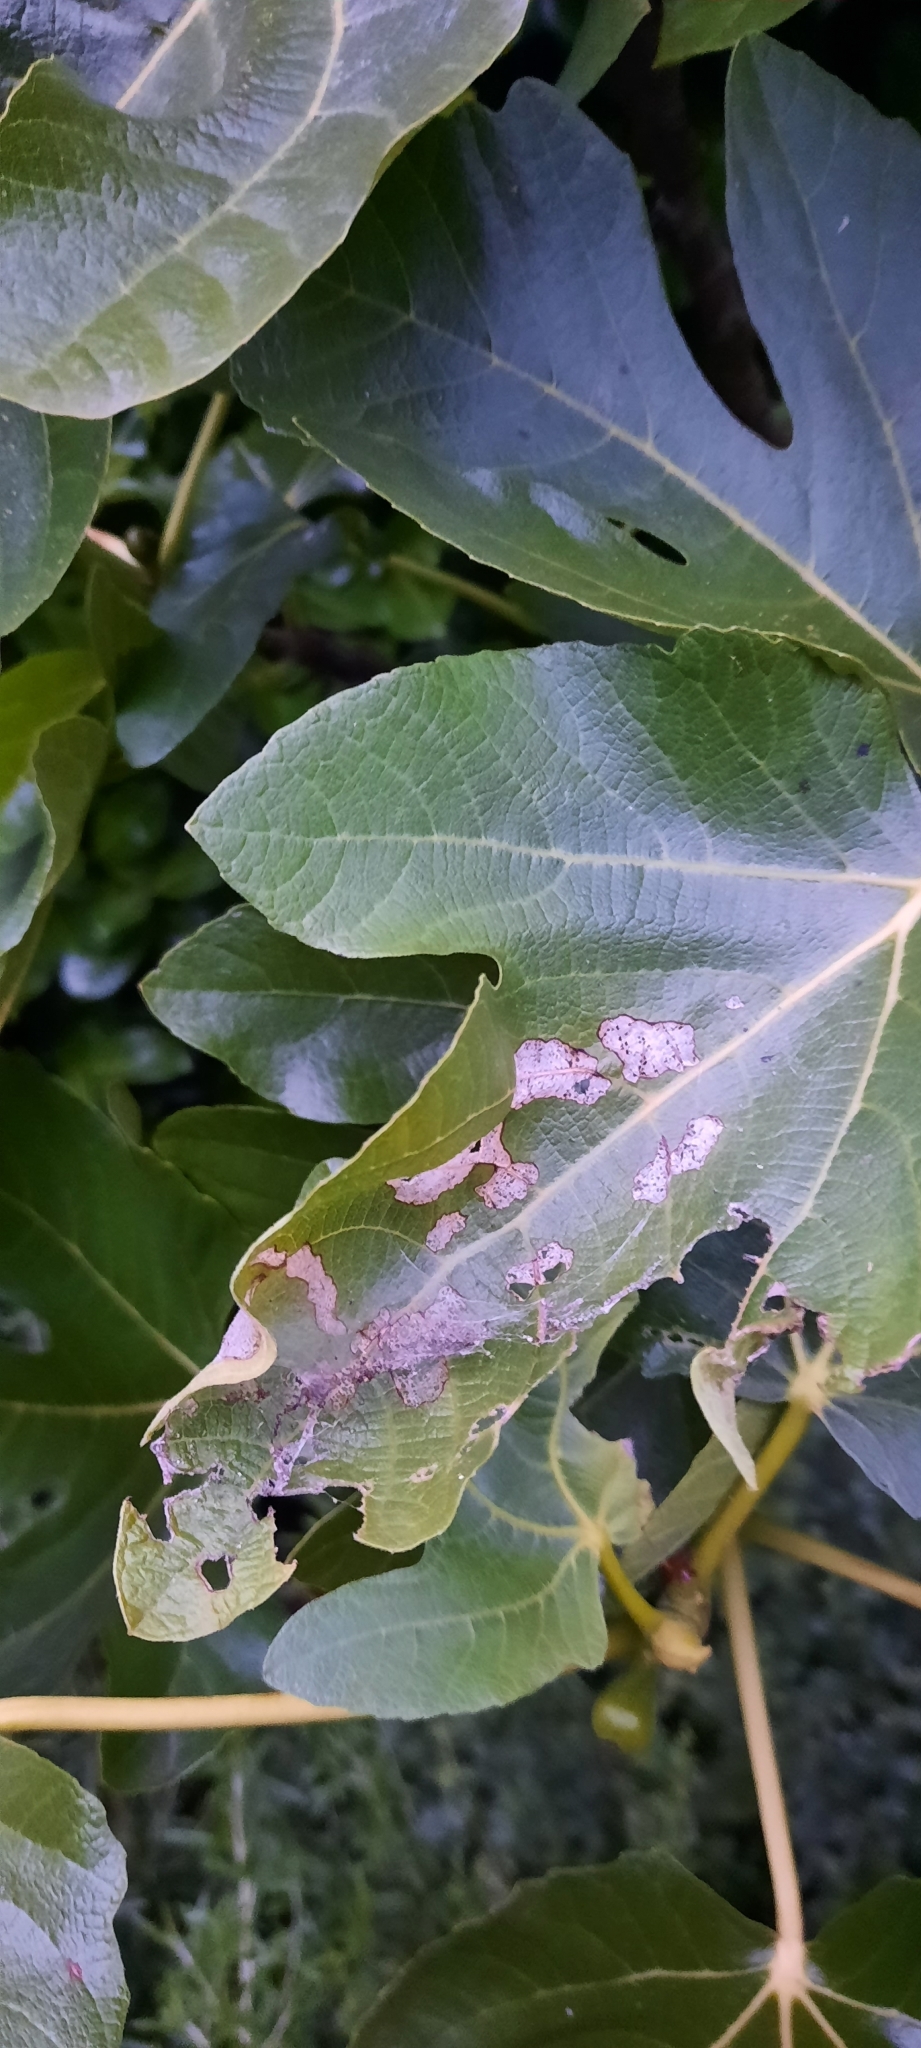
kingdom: Animalia
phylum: Arthropoda
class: Insecta
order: Lepidoptera
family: Choreutidae
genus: Anthophila
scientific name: Anthophila nemorana
